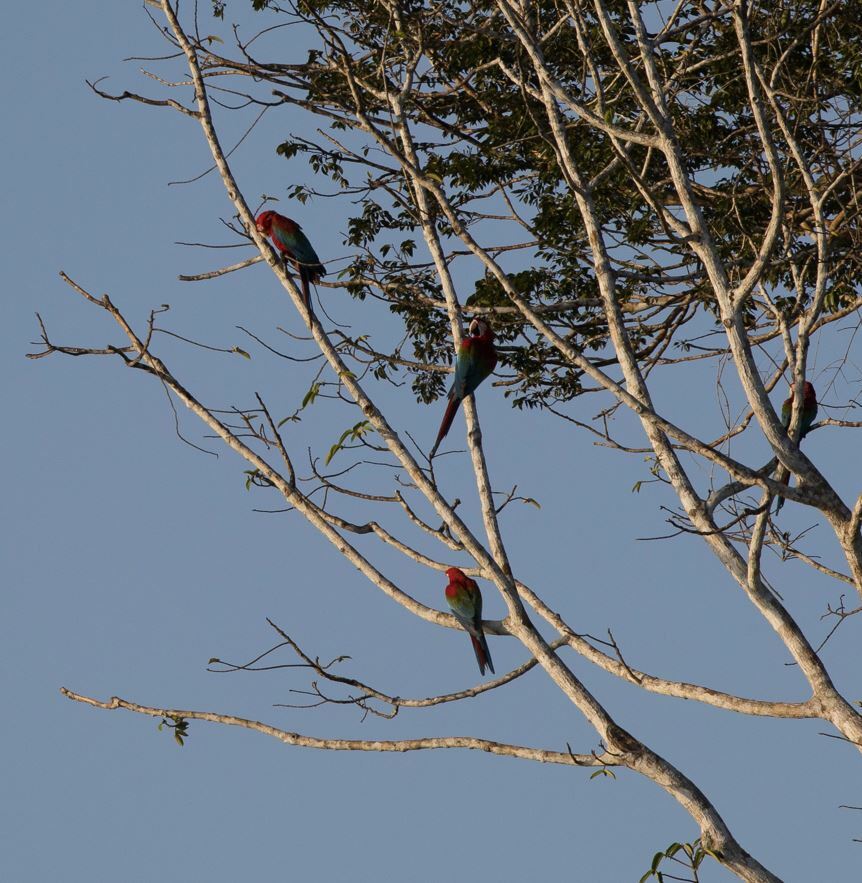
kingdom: Animalia
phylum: Chordata
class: Aves
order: Psittaciformes
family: Psittacidae
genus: Ara
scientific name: Ara chloropterus
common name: Red-and-green macaw
